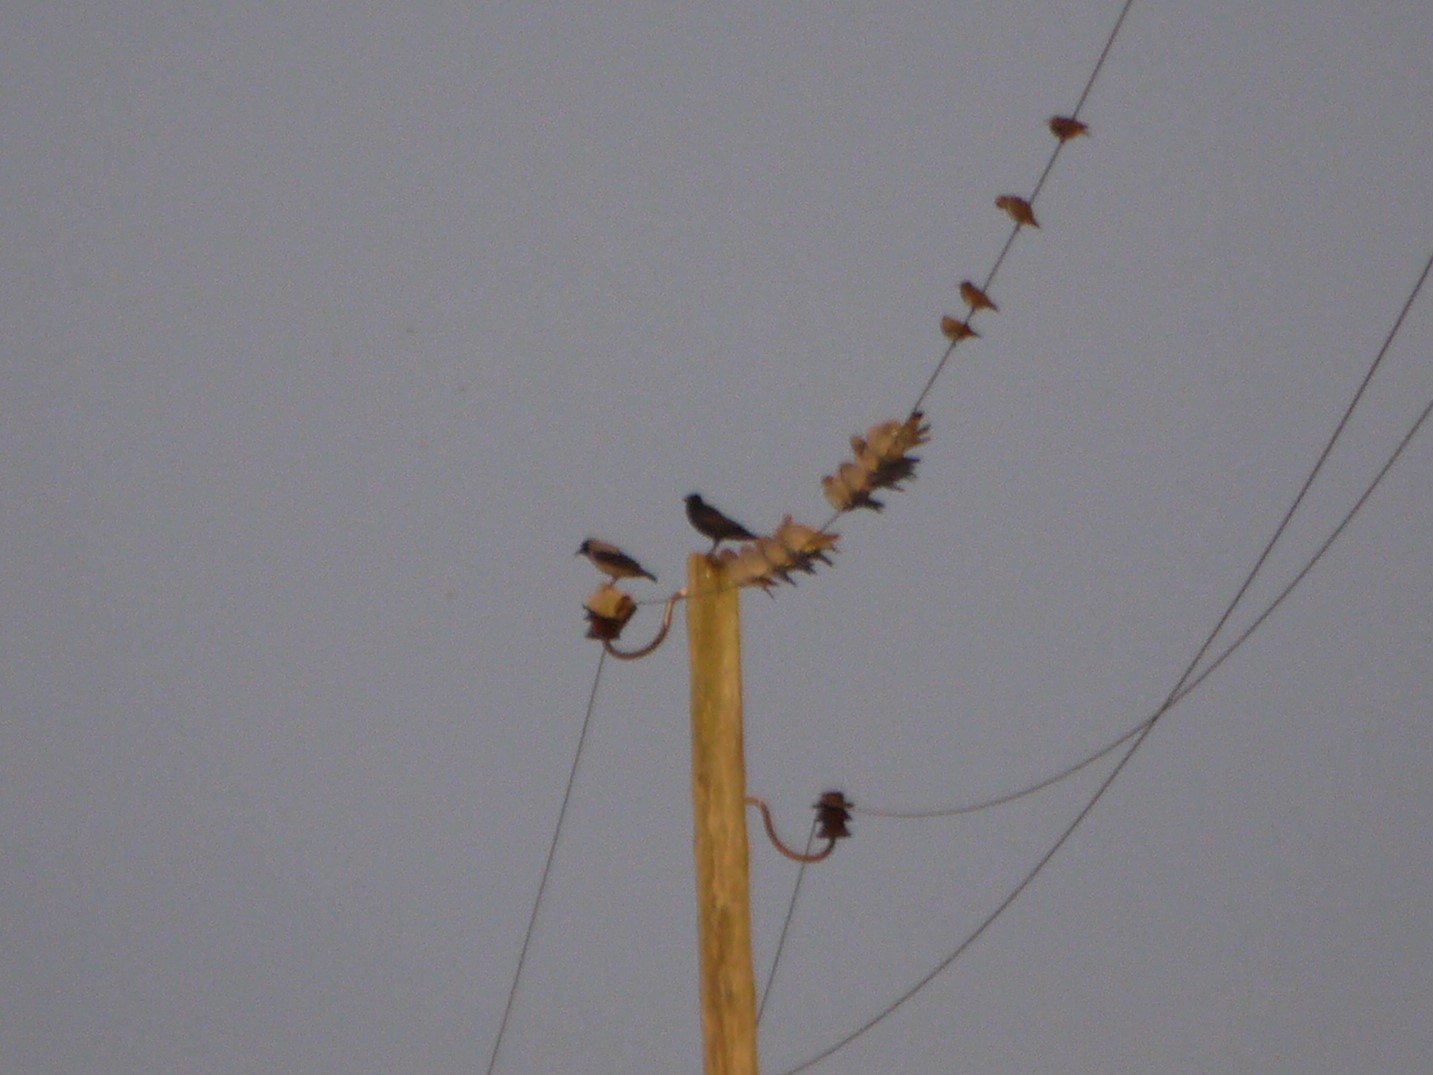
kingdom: Animalia
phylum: Chordata
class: Aves
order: Passeriformes
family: Corvidae
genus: Corvus
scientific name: Corvus corone
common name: Carrion crow
